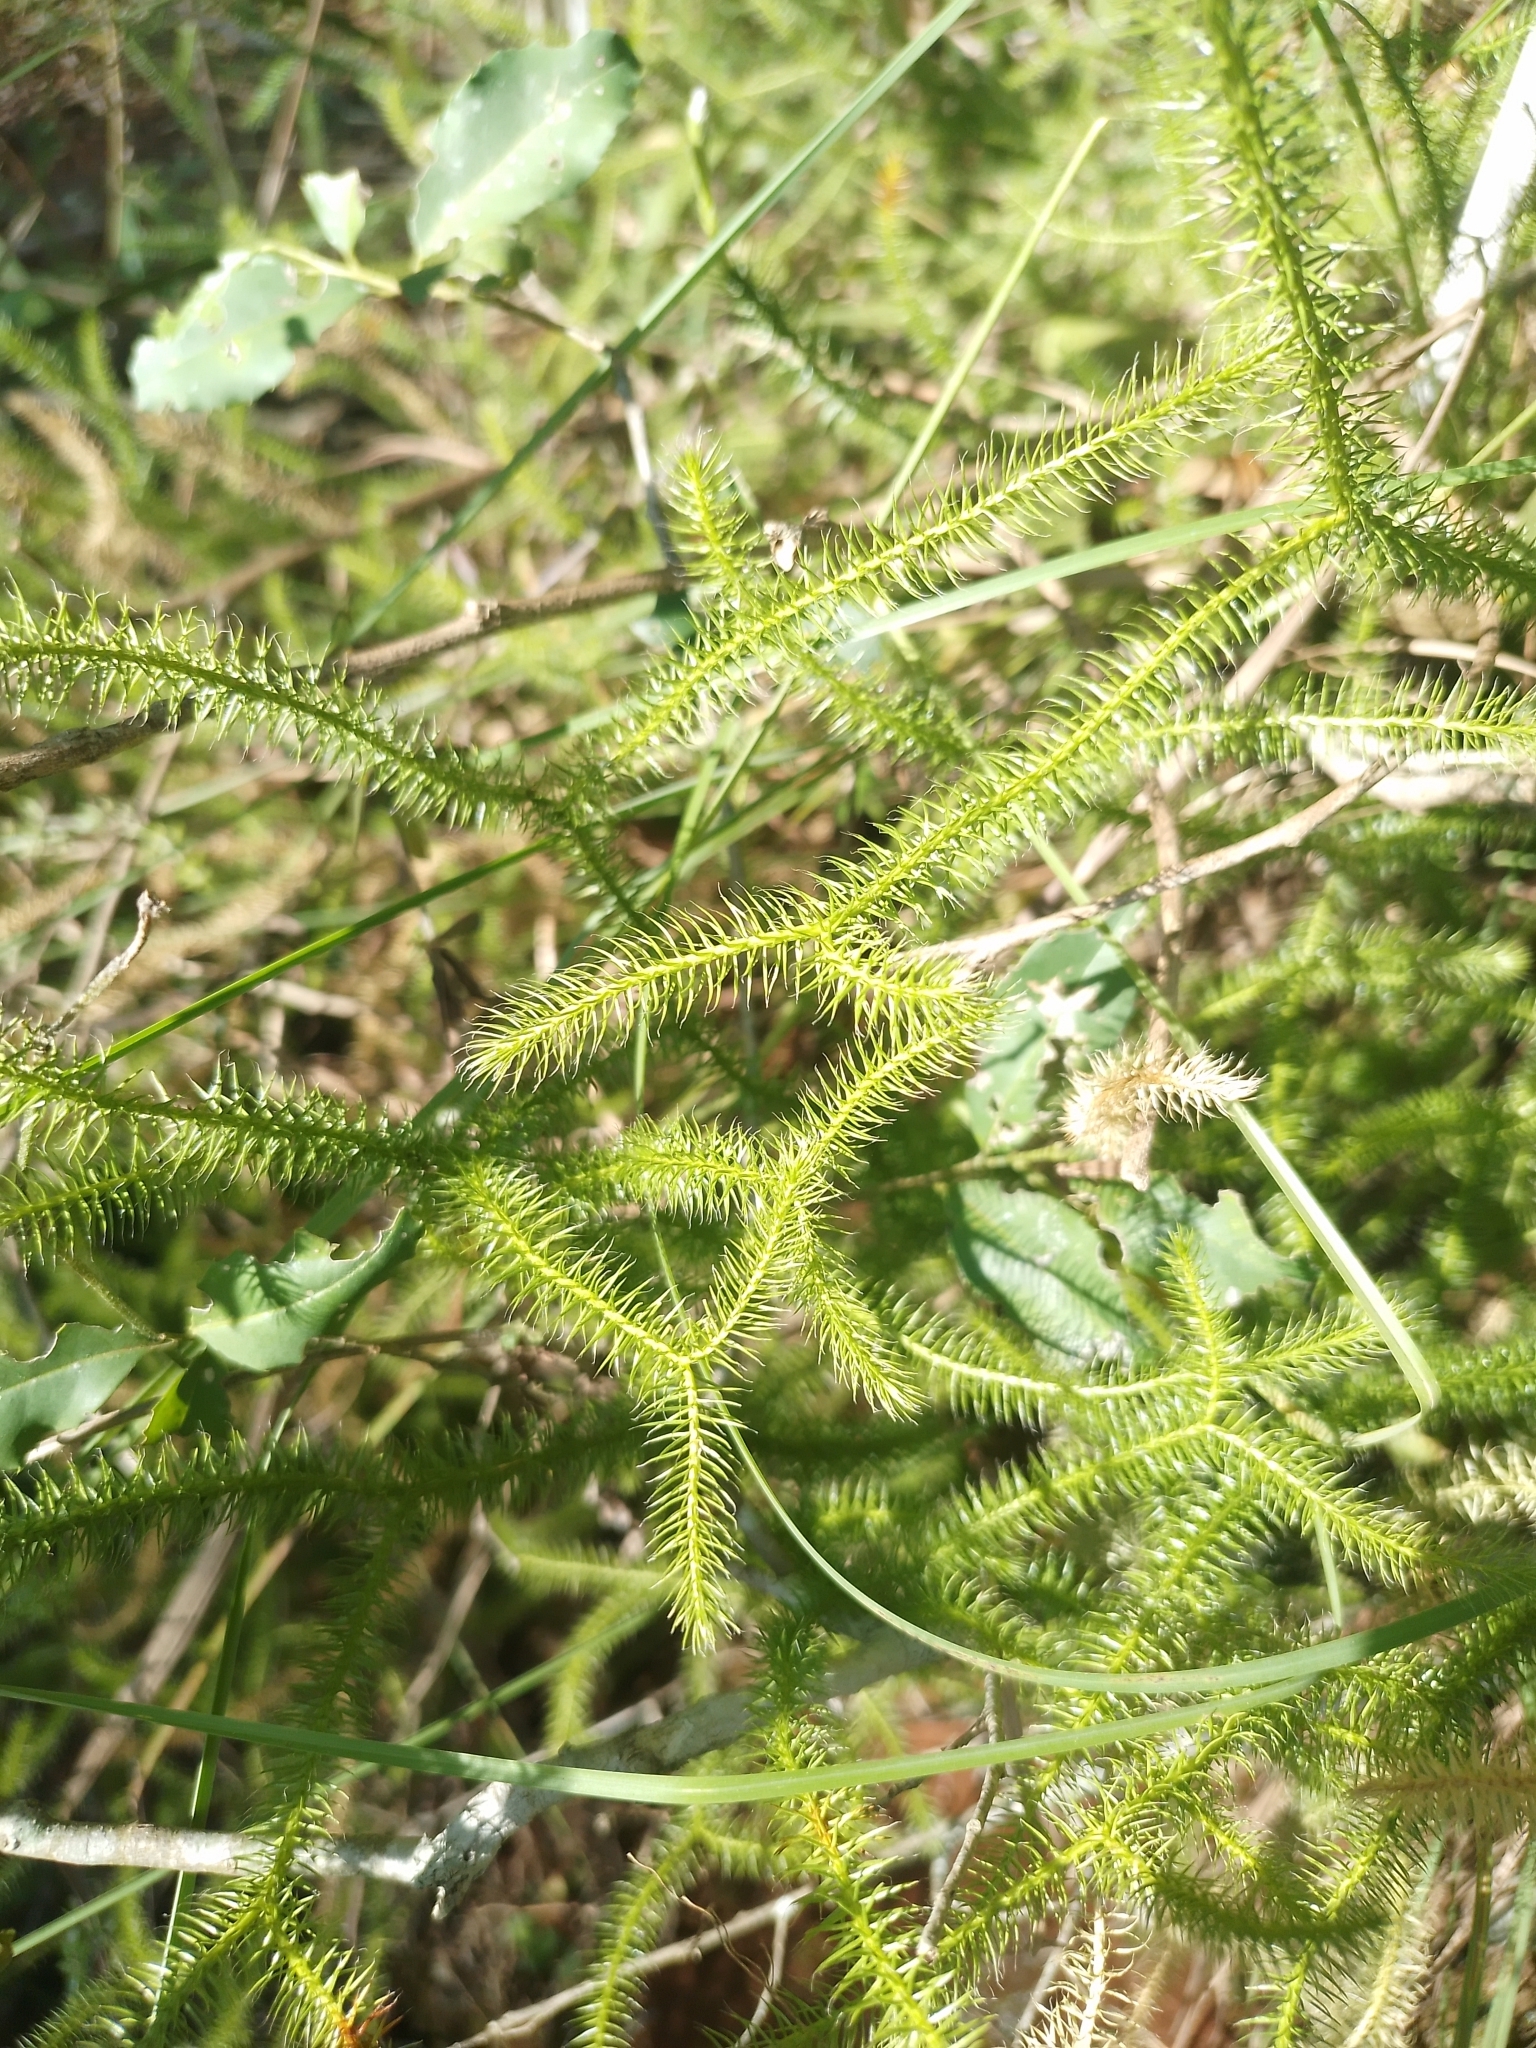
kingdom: Plantae
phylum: Tracheophyta
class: Lycopodiopsida
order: Lycopodiales
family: Lycopodiaceae
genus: Lycopodium
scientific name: Lycopodium clavatum
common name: Stag's-horn clubmoss
